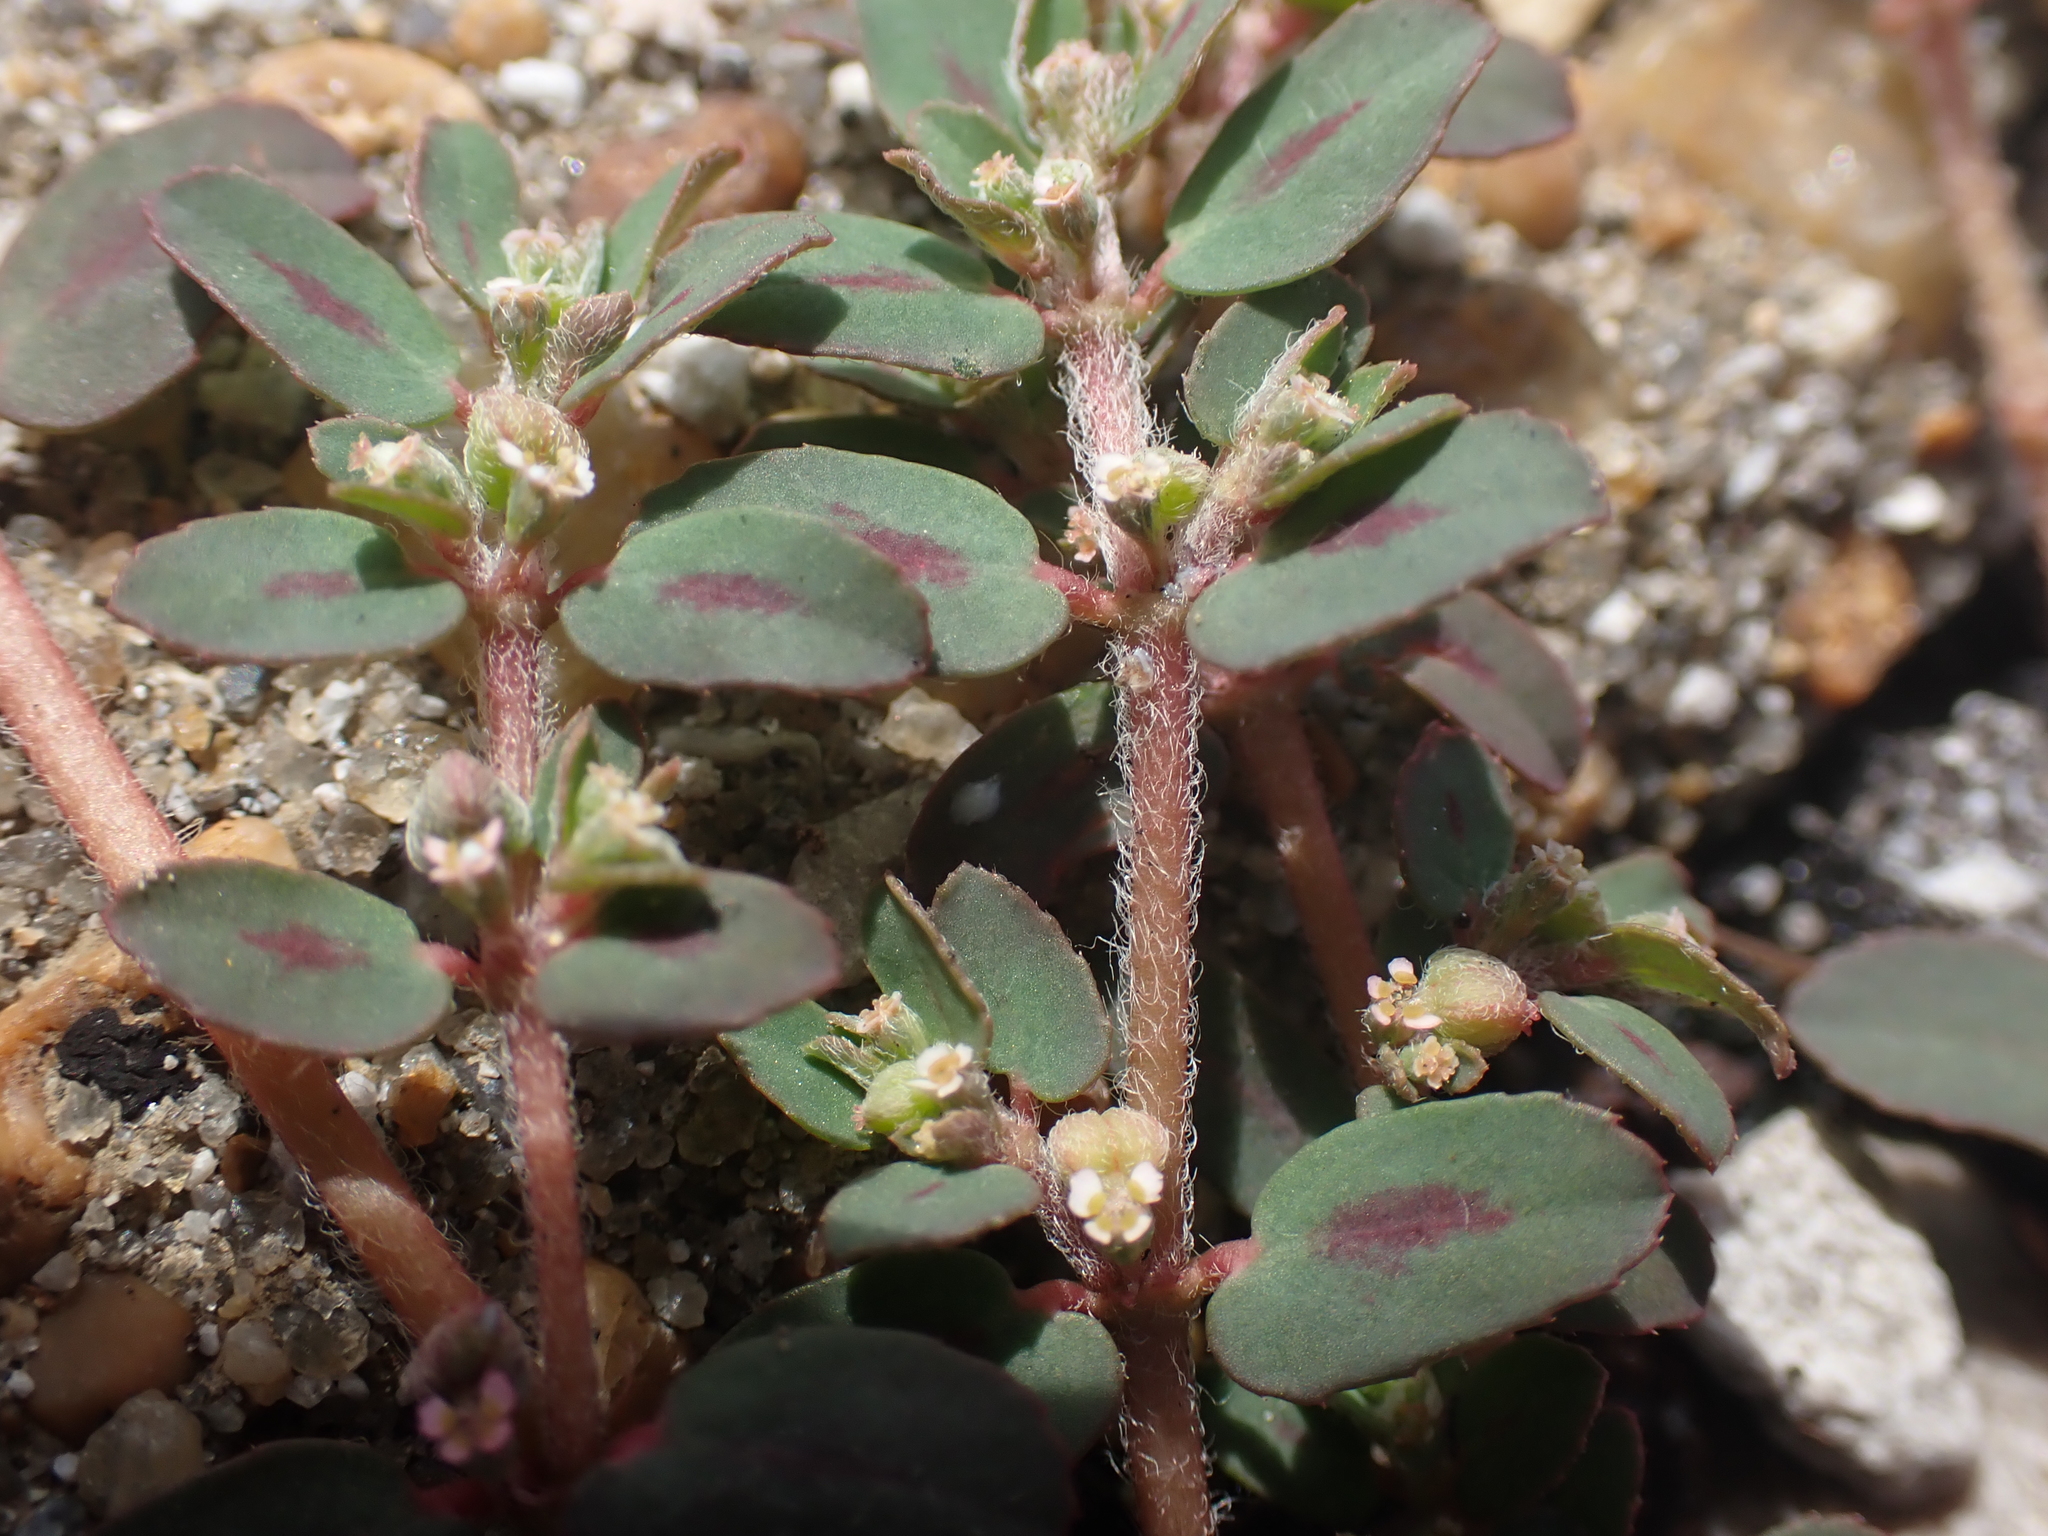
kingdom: Plantae
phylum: Tracheophyta
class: Magnoliopsida
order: Malpighiales
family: Euphorbiaceae
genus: Euphorbia
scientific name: Euphorbia maculata
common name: Spotted spurge
